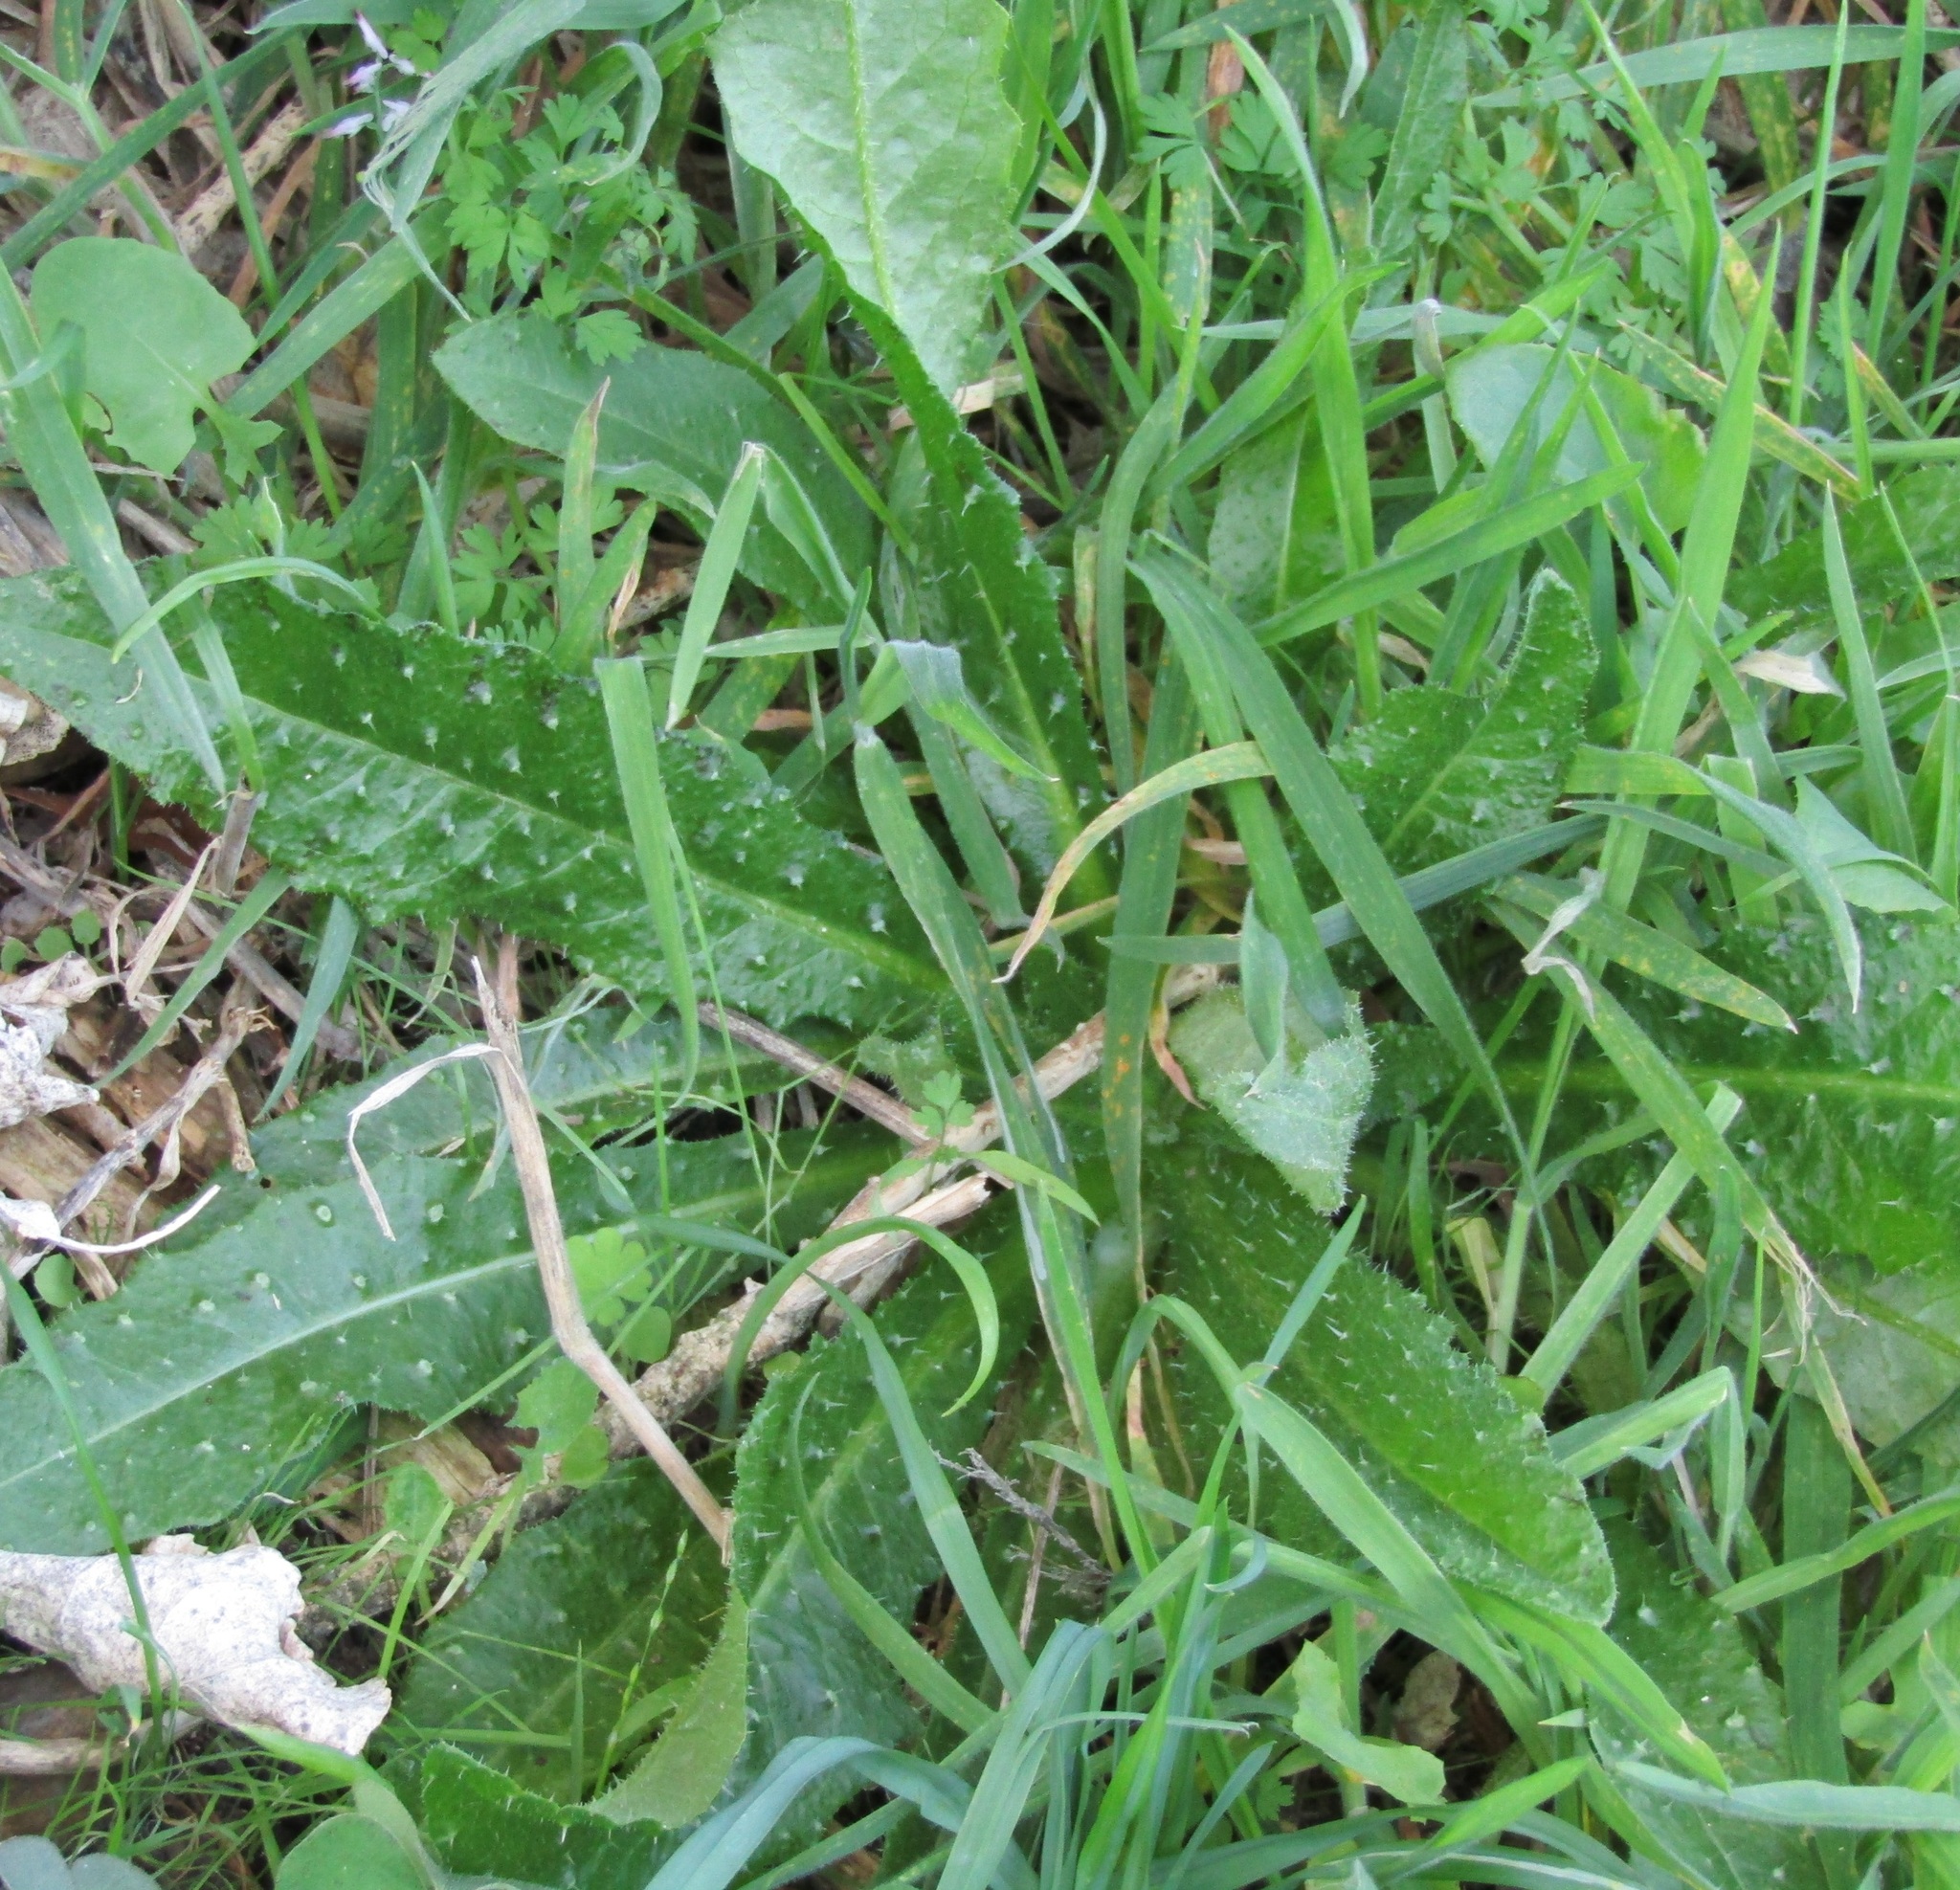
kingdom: Plantae
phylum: Tracheophyta
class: Magnoliopsida
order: Asterales
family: Asteraceae
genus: Helminthotheca
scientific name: Helminthotheca echioides
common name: Ox-tongue
